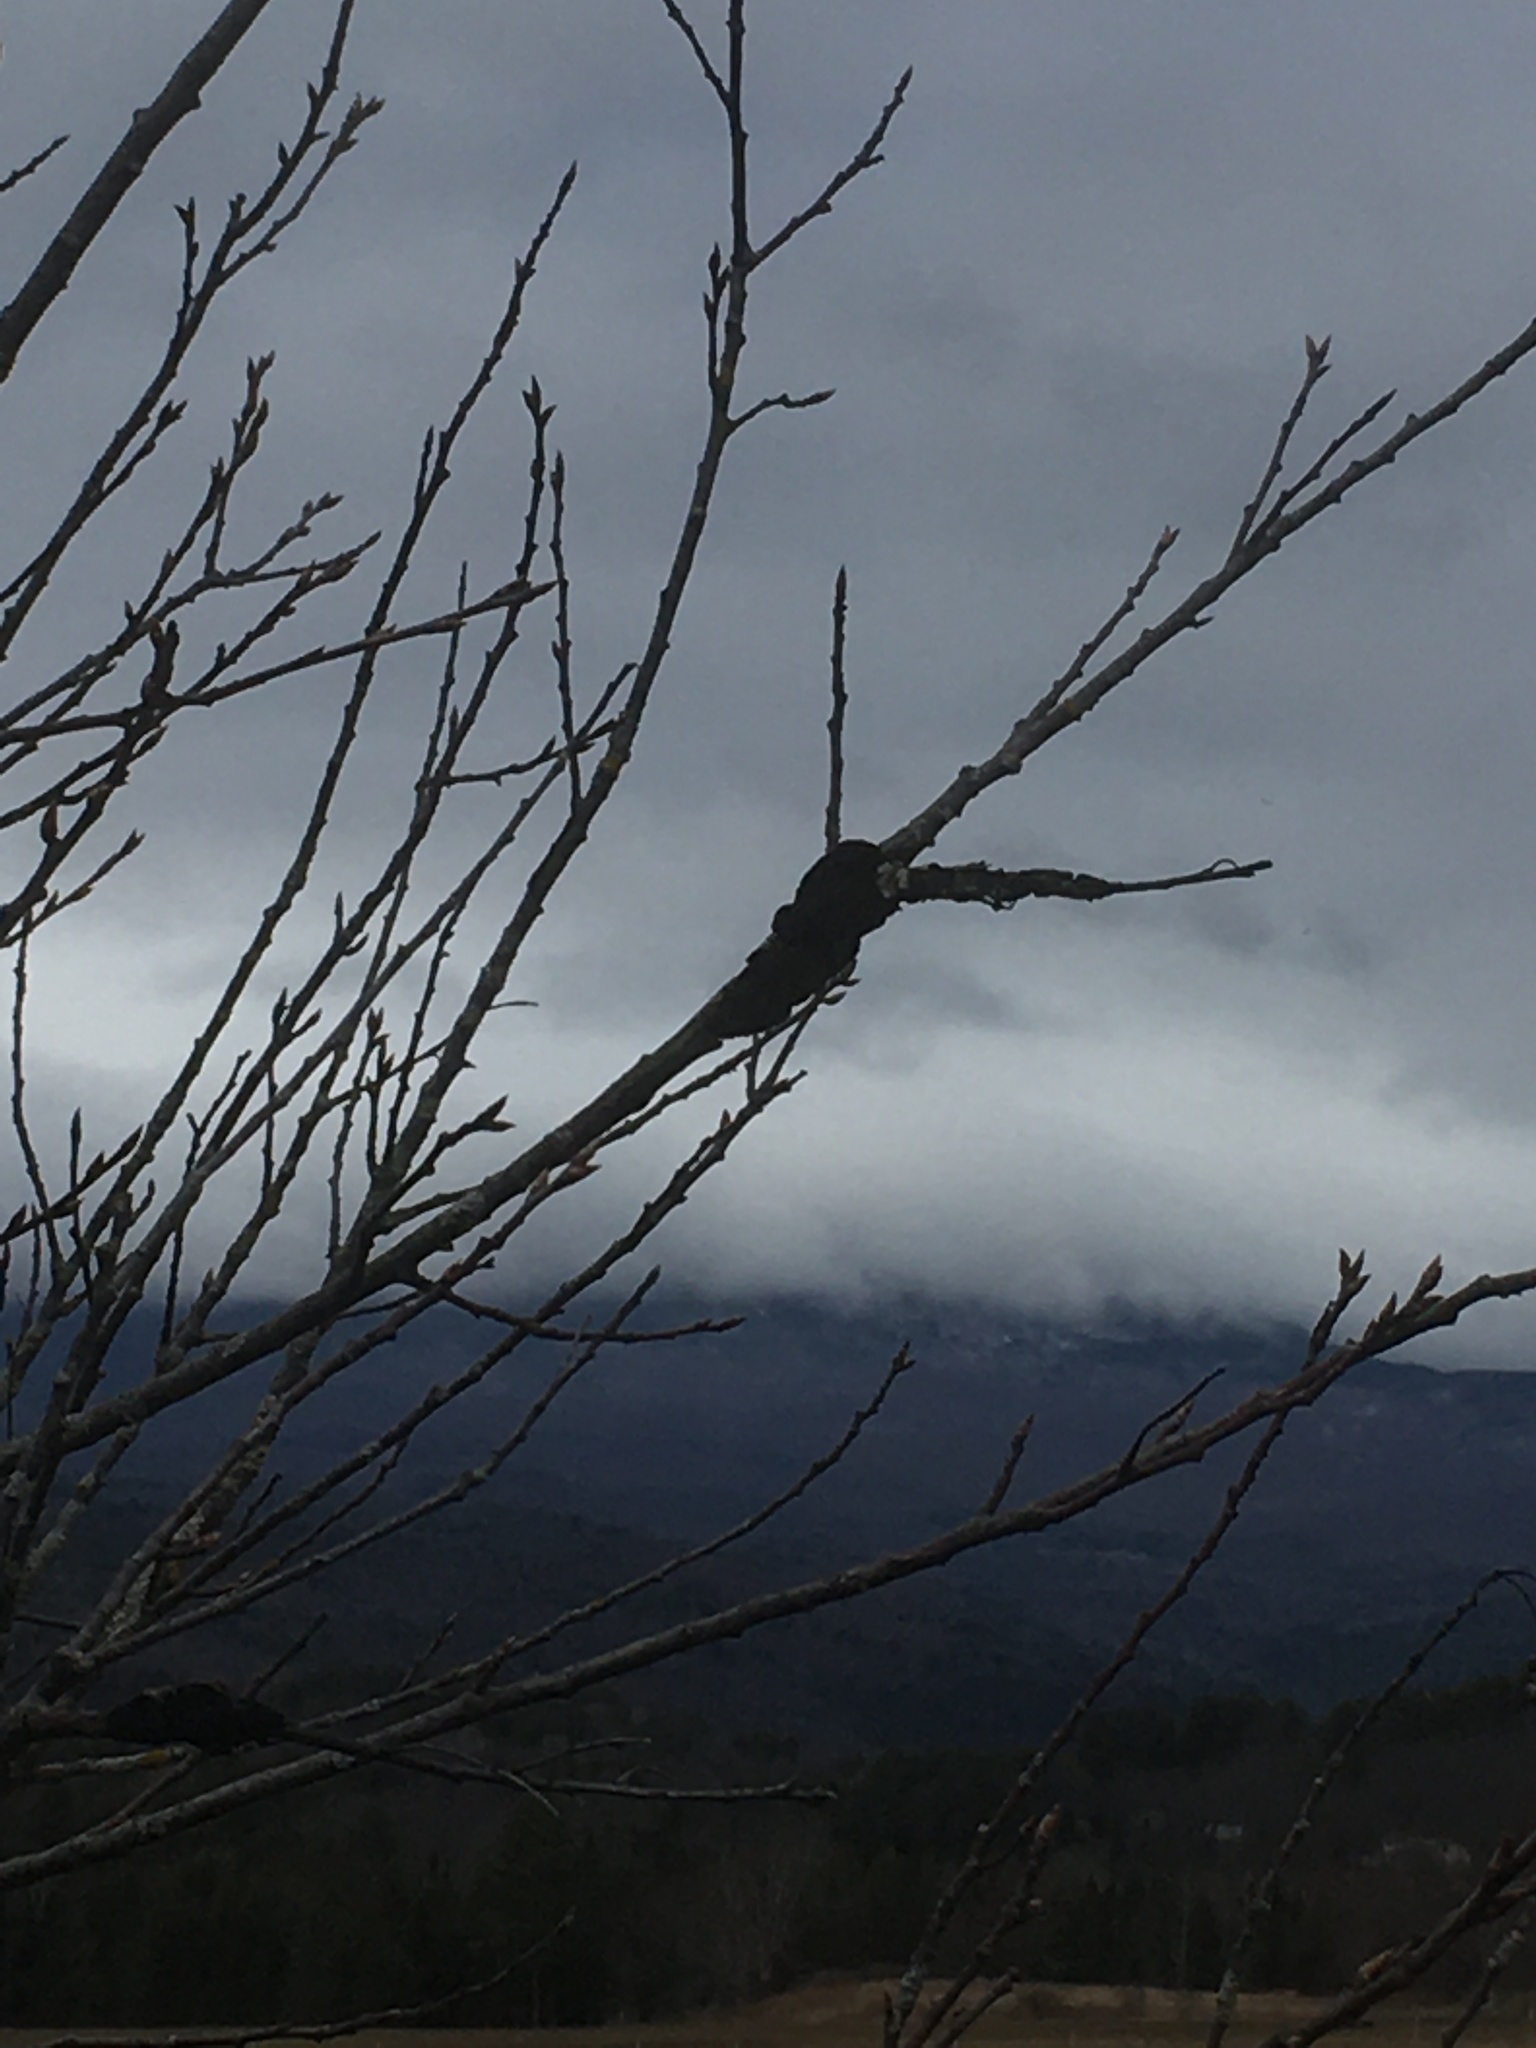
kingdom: Fungi
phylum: Ascomycota
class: Dothideomycetes
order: Venturiales
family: Venturiaceae
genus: Apiosporina
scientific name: Apiosporina morbosa
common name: Black knot
